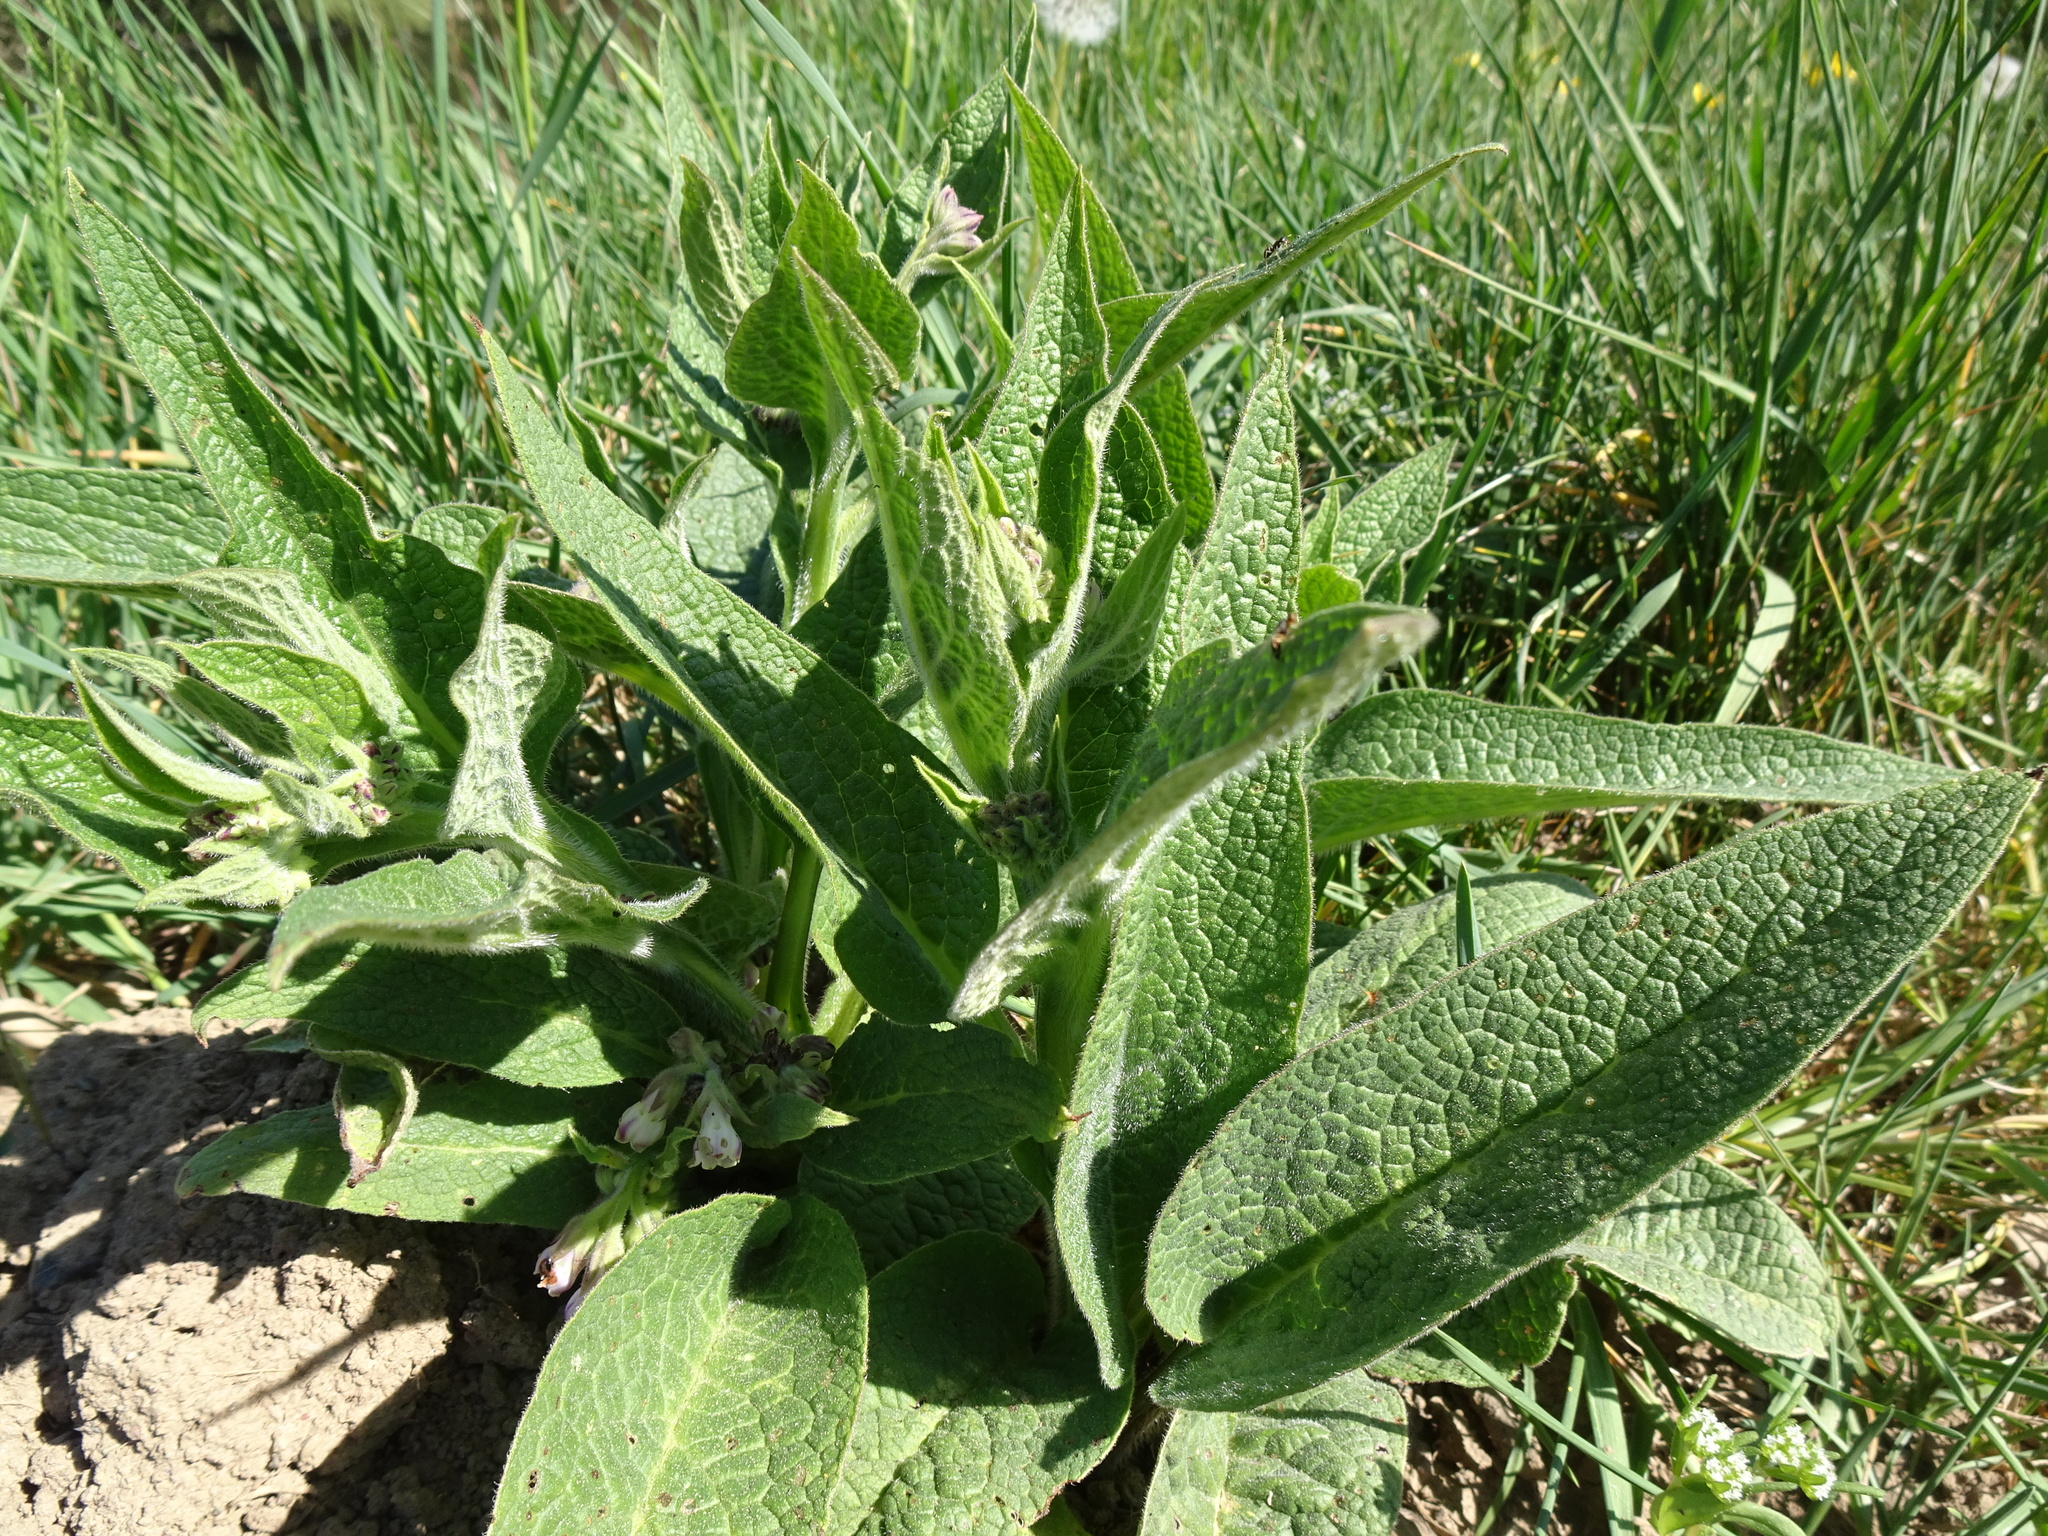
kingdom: Plantae
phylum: Tracheophyta
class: Magnoliopsida
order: Boraginales
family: Boraginaceae
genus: Symphytum
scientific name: Symphytum officinale
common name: Common comfrey
